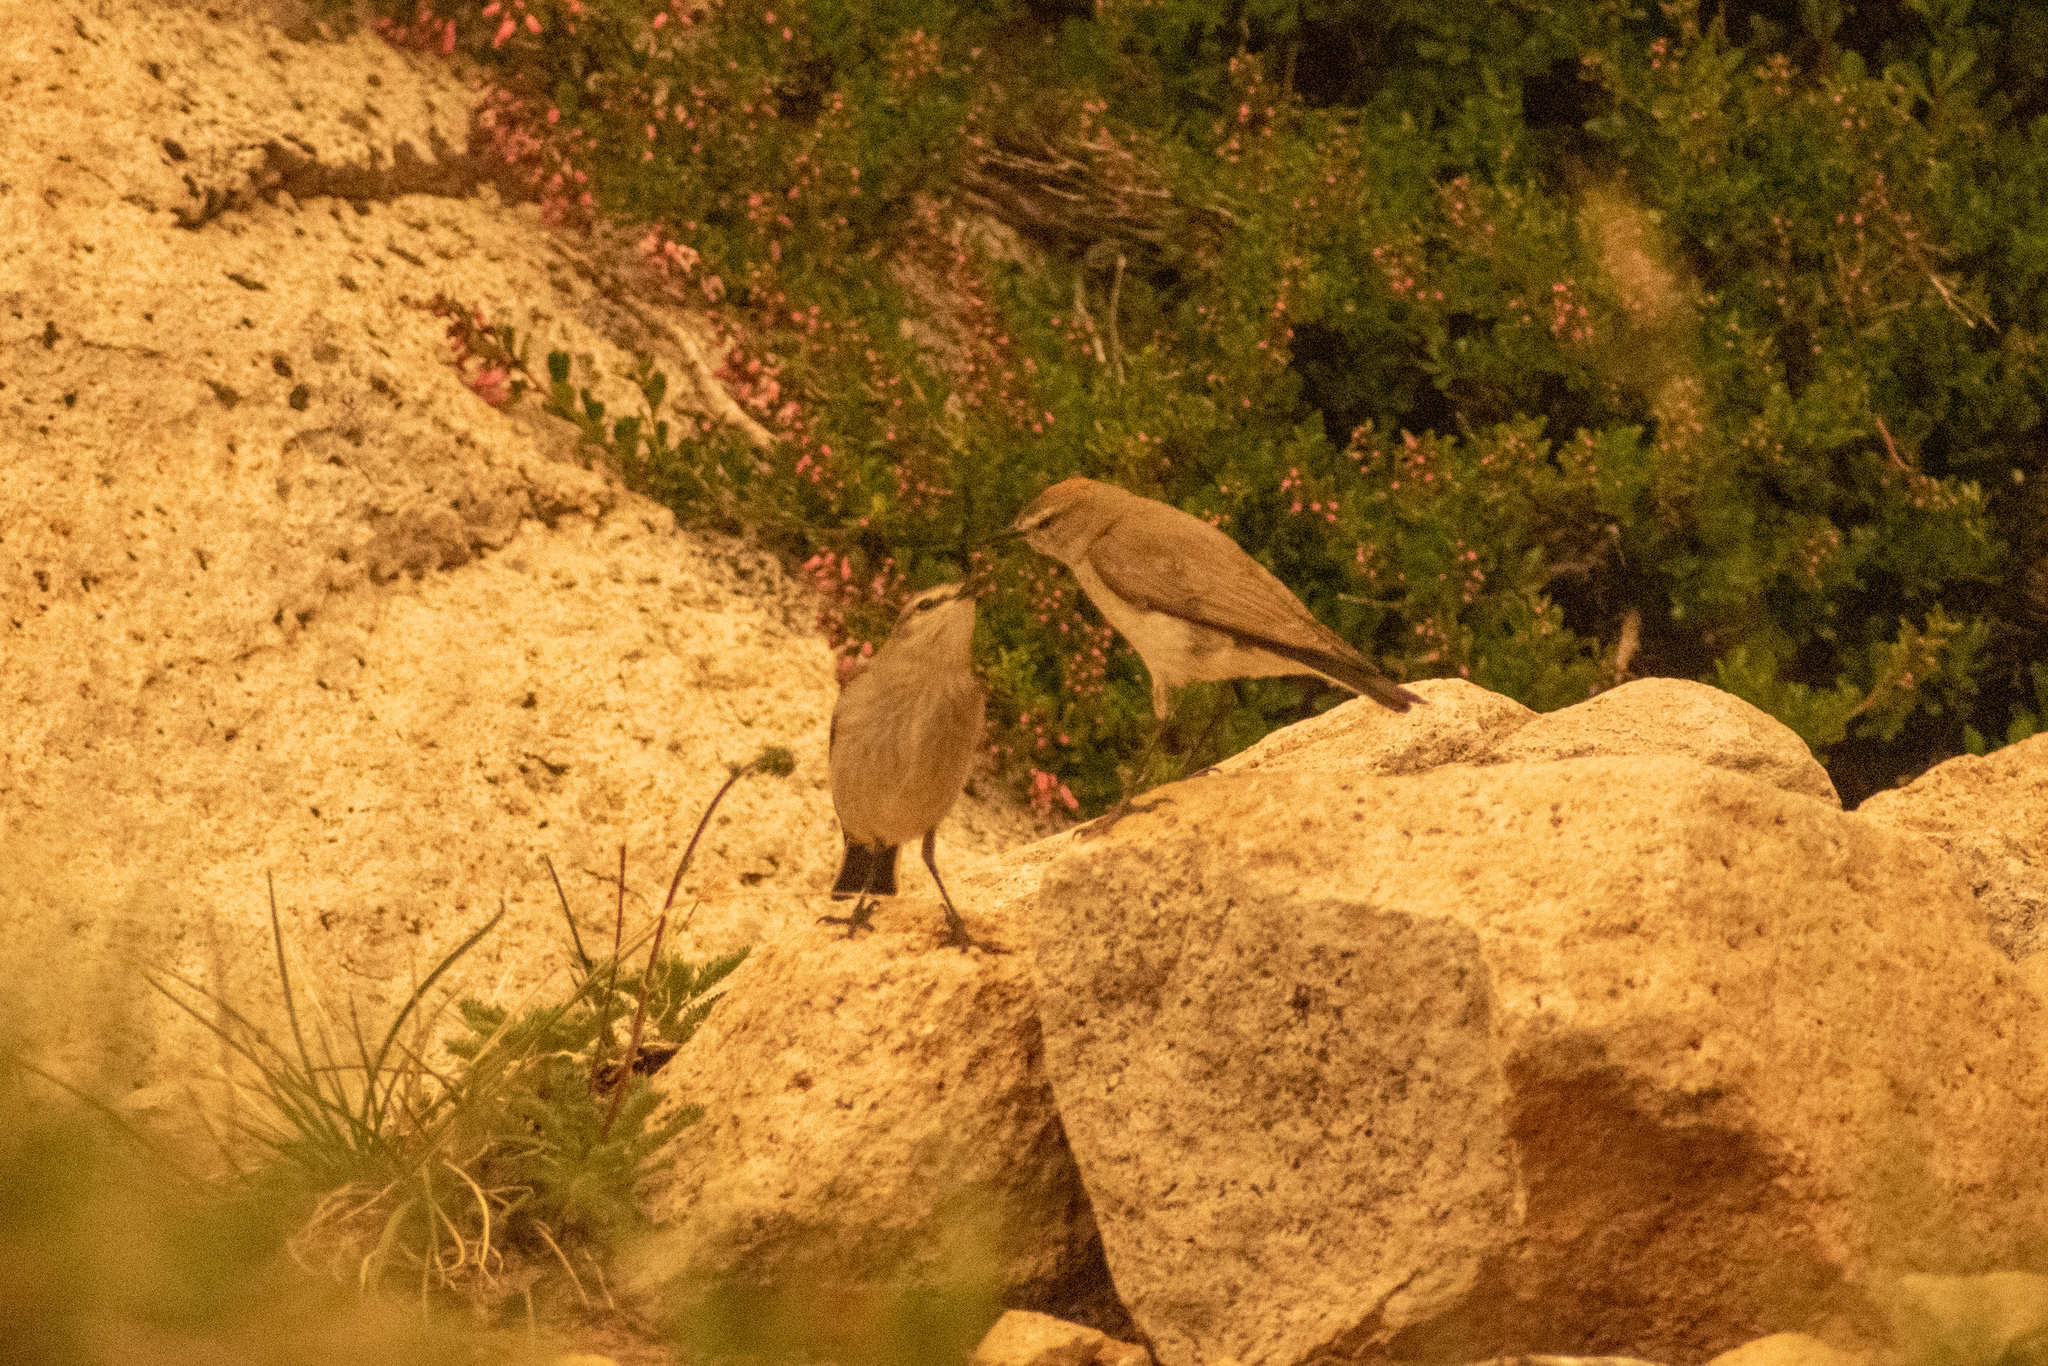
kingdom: Animalia
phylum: Chordata
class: Aves
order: Passeriformes
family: Tyrannidae
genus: Muscisaxicola
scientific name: Muscisaxicola albilora
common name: White-browed ground tyrant
